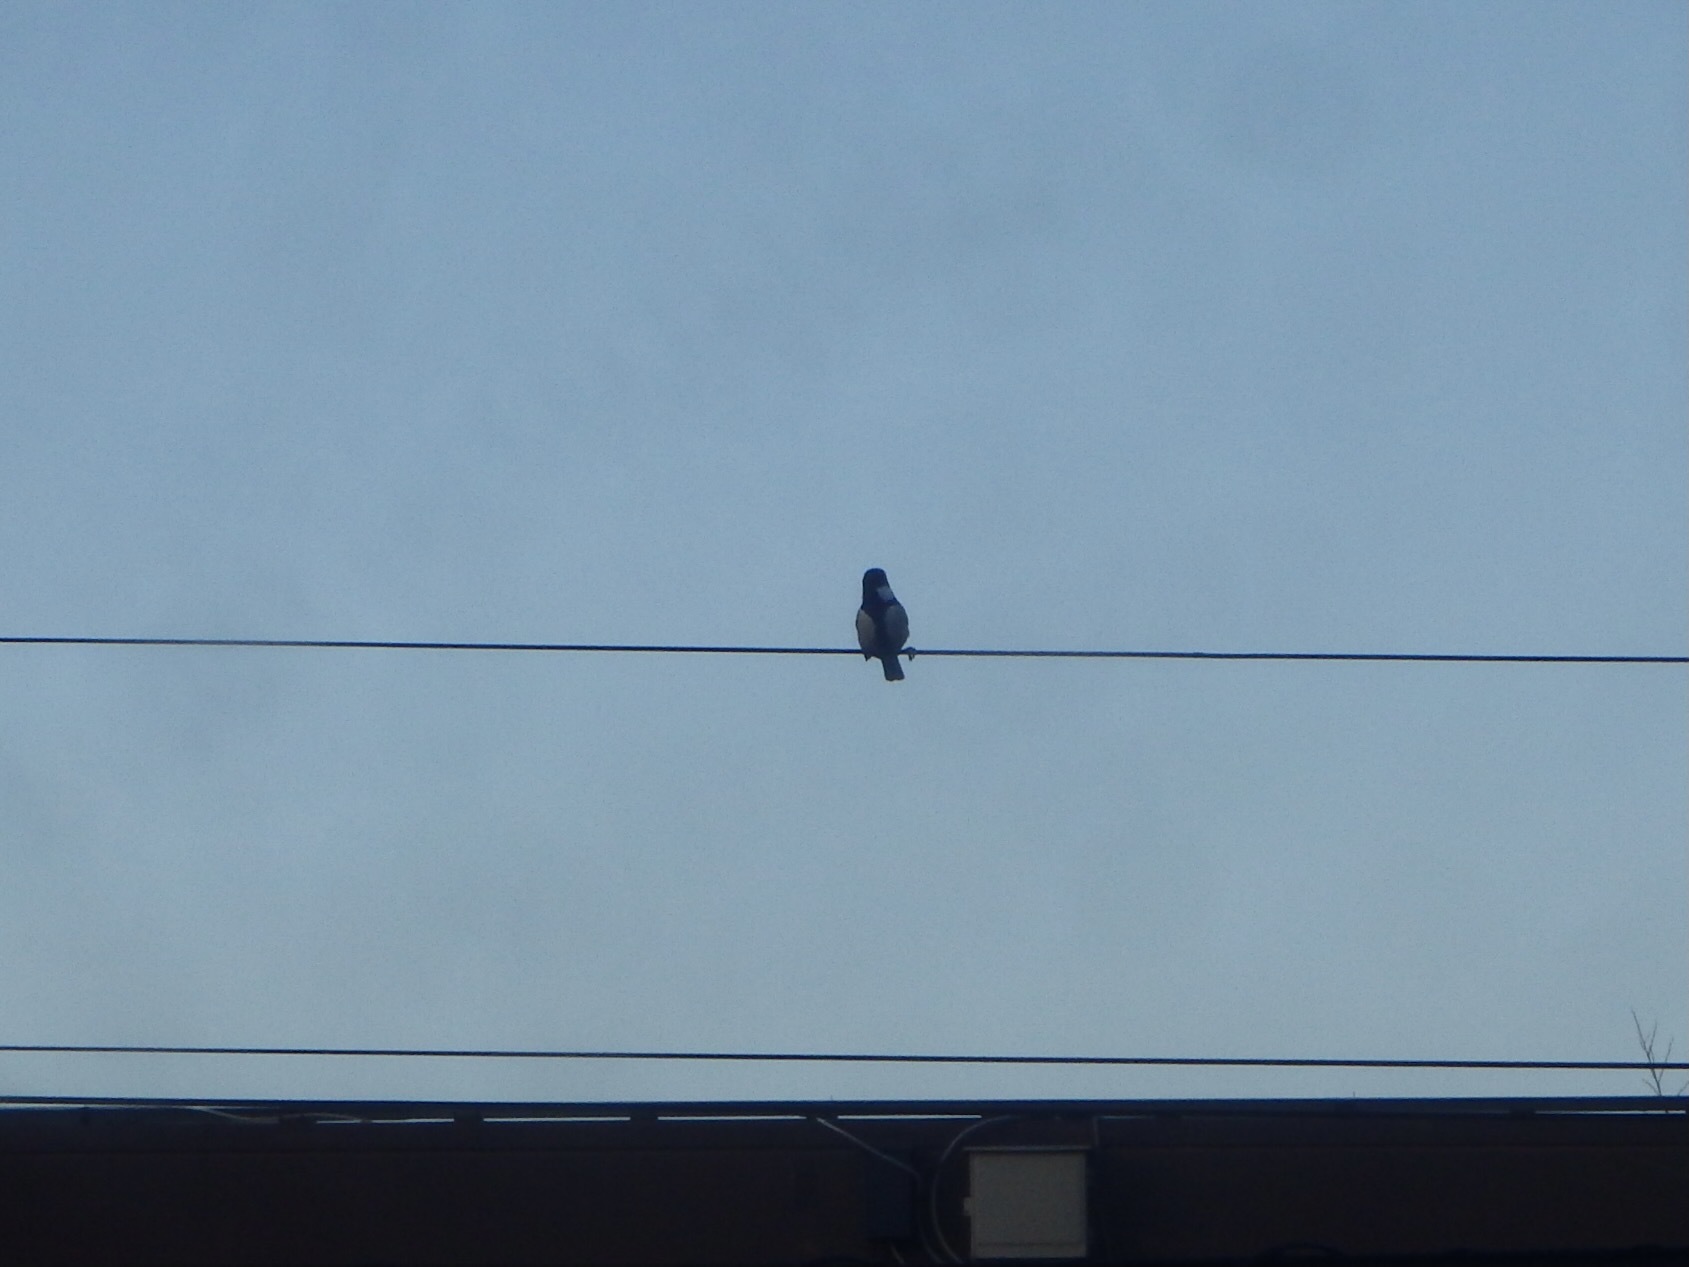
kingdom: Animalia
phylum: Chordata
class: Aves
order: Passeriformes
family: Paridae
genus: Parus
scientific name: Parus minor
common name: Japanese tit
